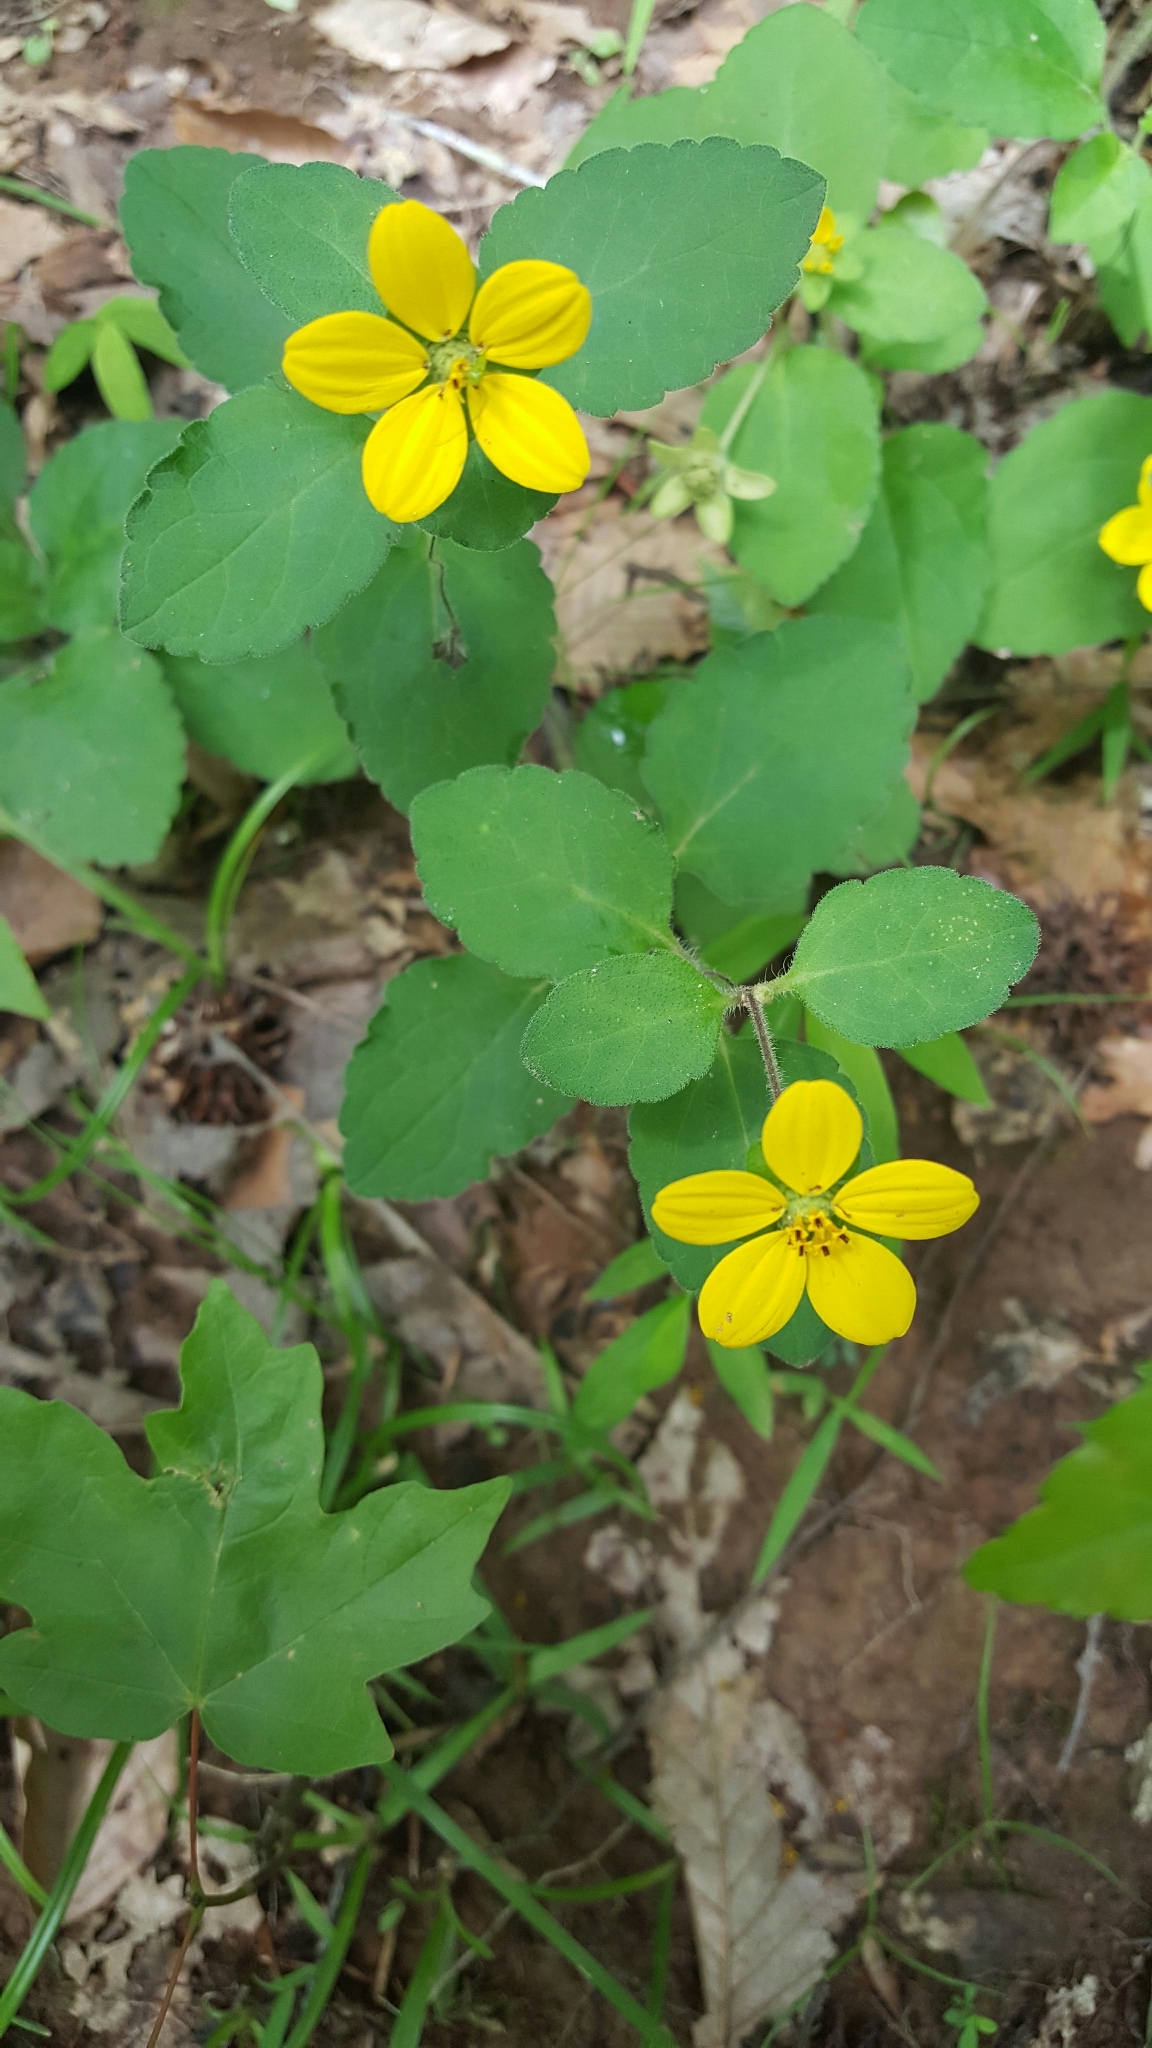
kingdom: Plantae
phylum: Tracheophyta
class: Magnoliopsida
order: Asterales
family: Asteraceae
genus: Chrysogonum
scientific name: Chrysogonum virginianum
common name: Golden-knee
